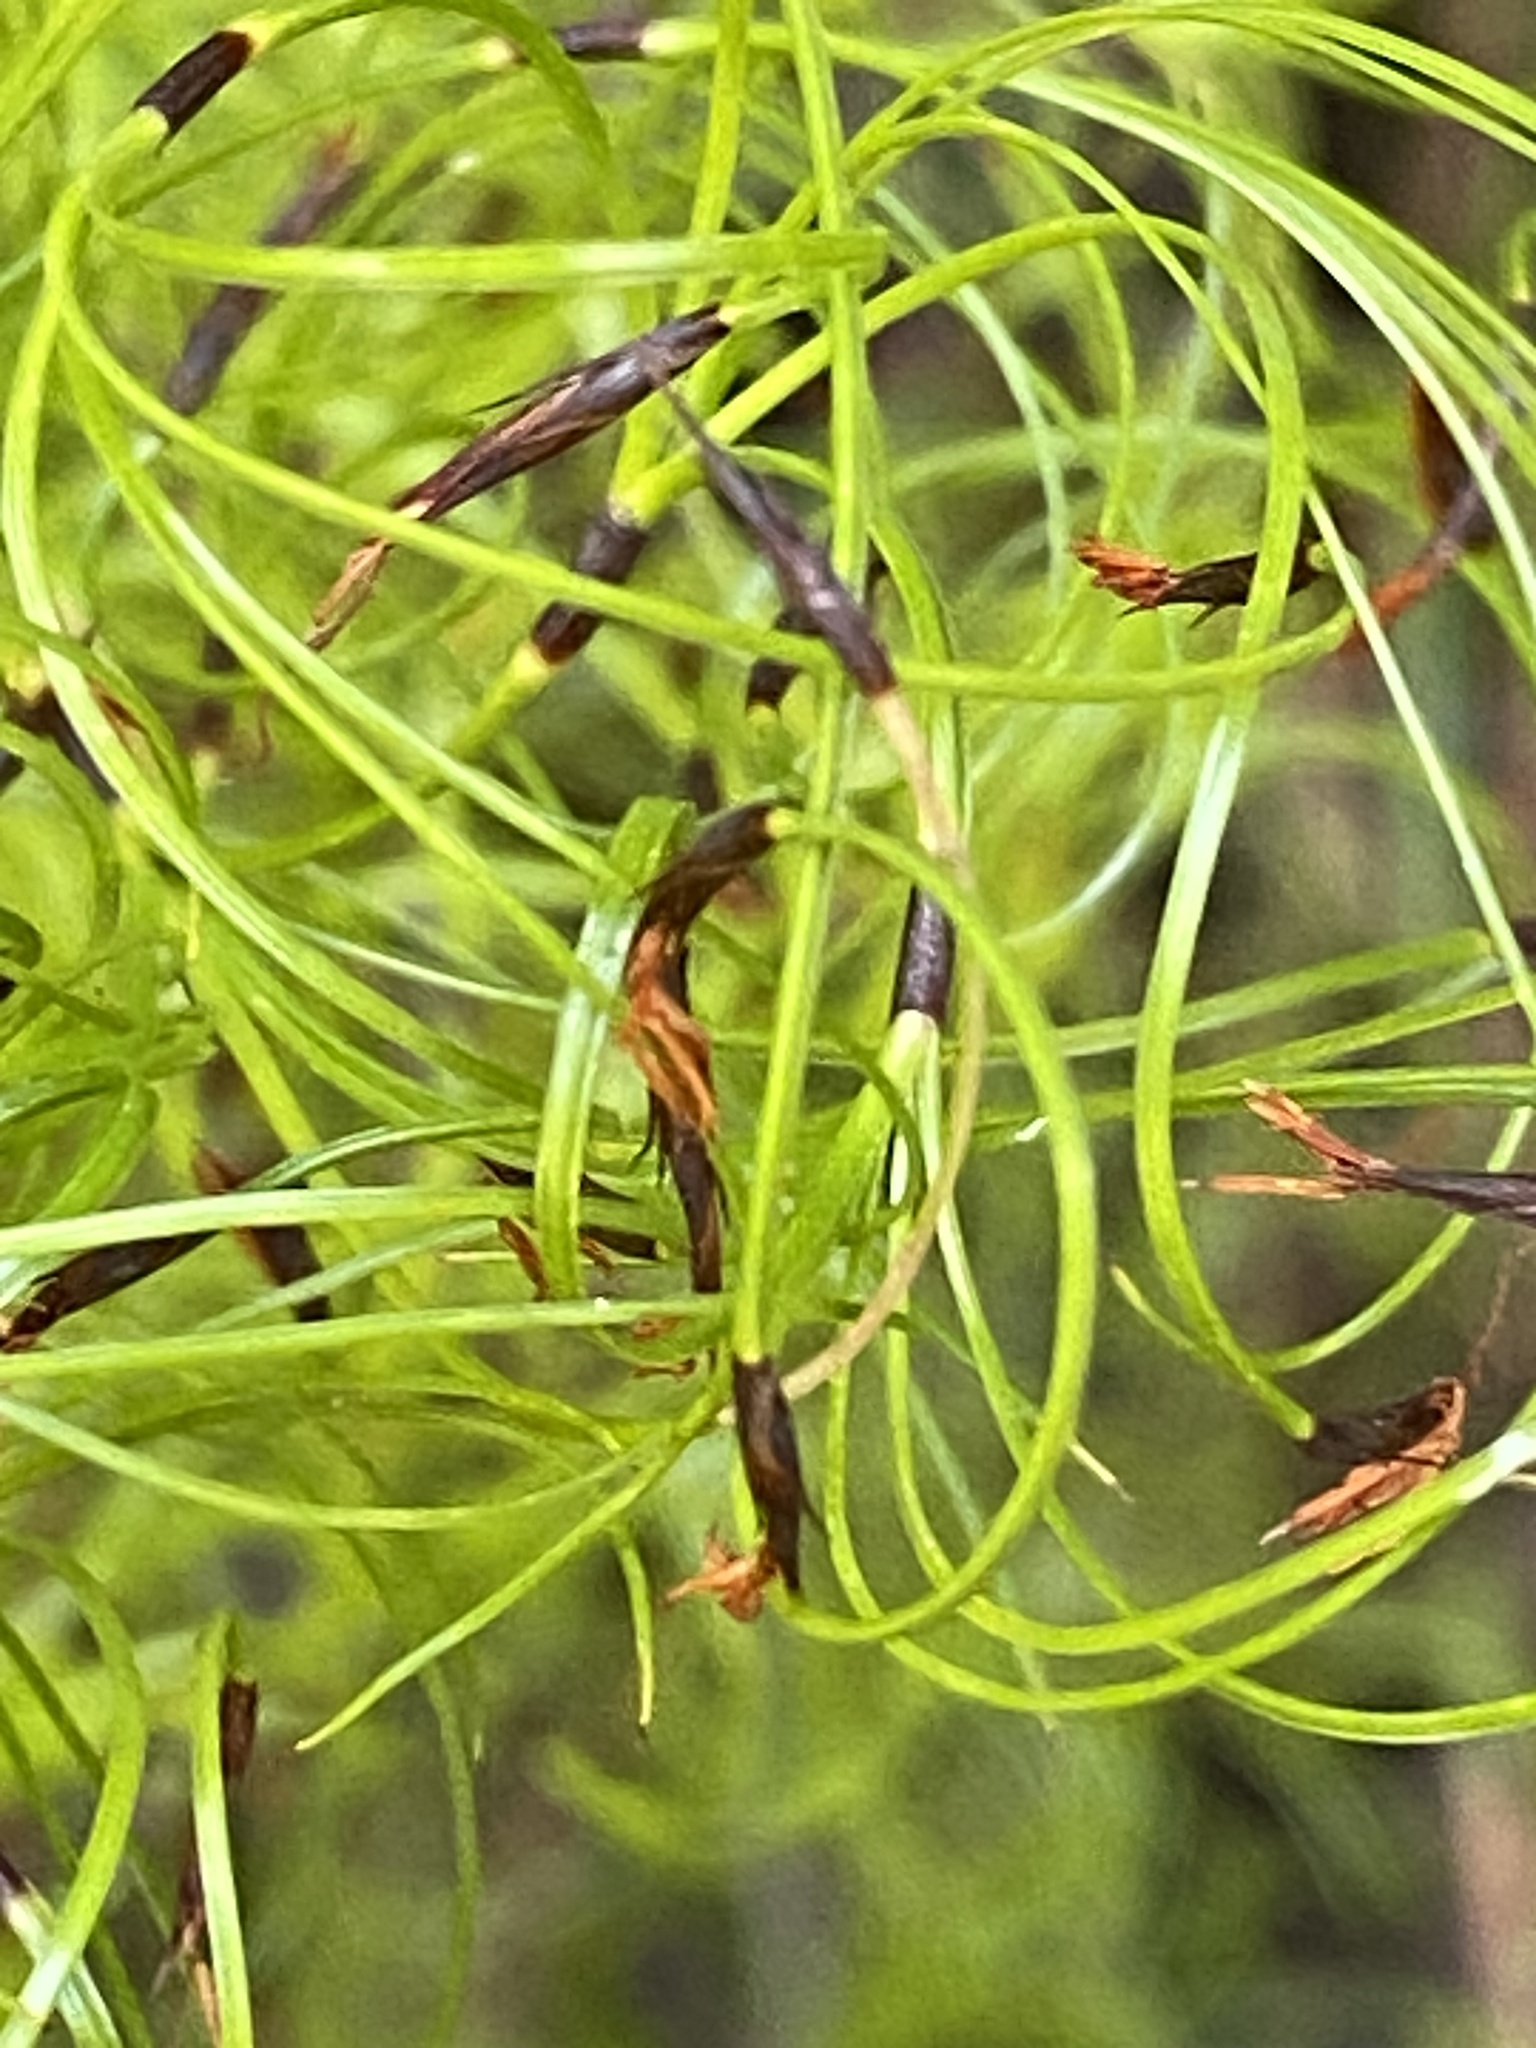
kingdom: Plantae
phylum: Tracheophyta
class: Liliopsida
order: Poales
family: Cyperaceae
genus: Caustis
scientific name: Caustis flexuosa
